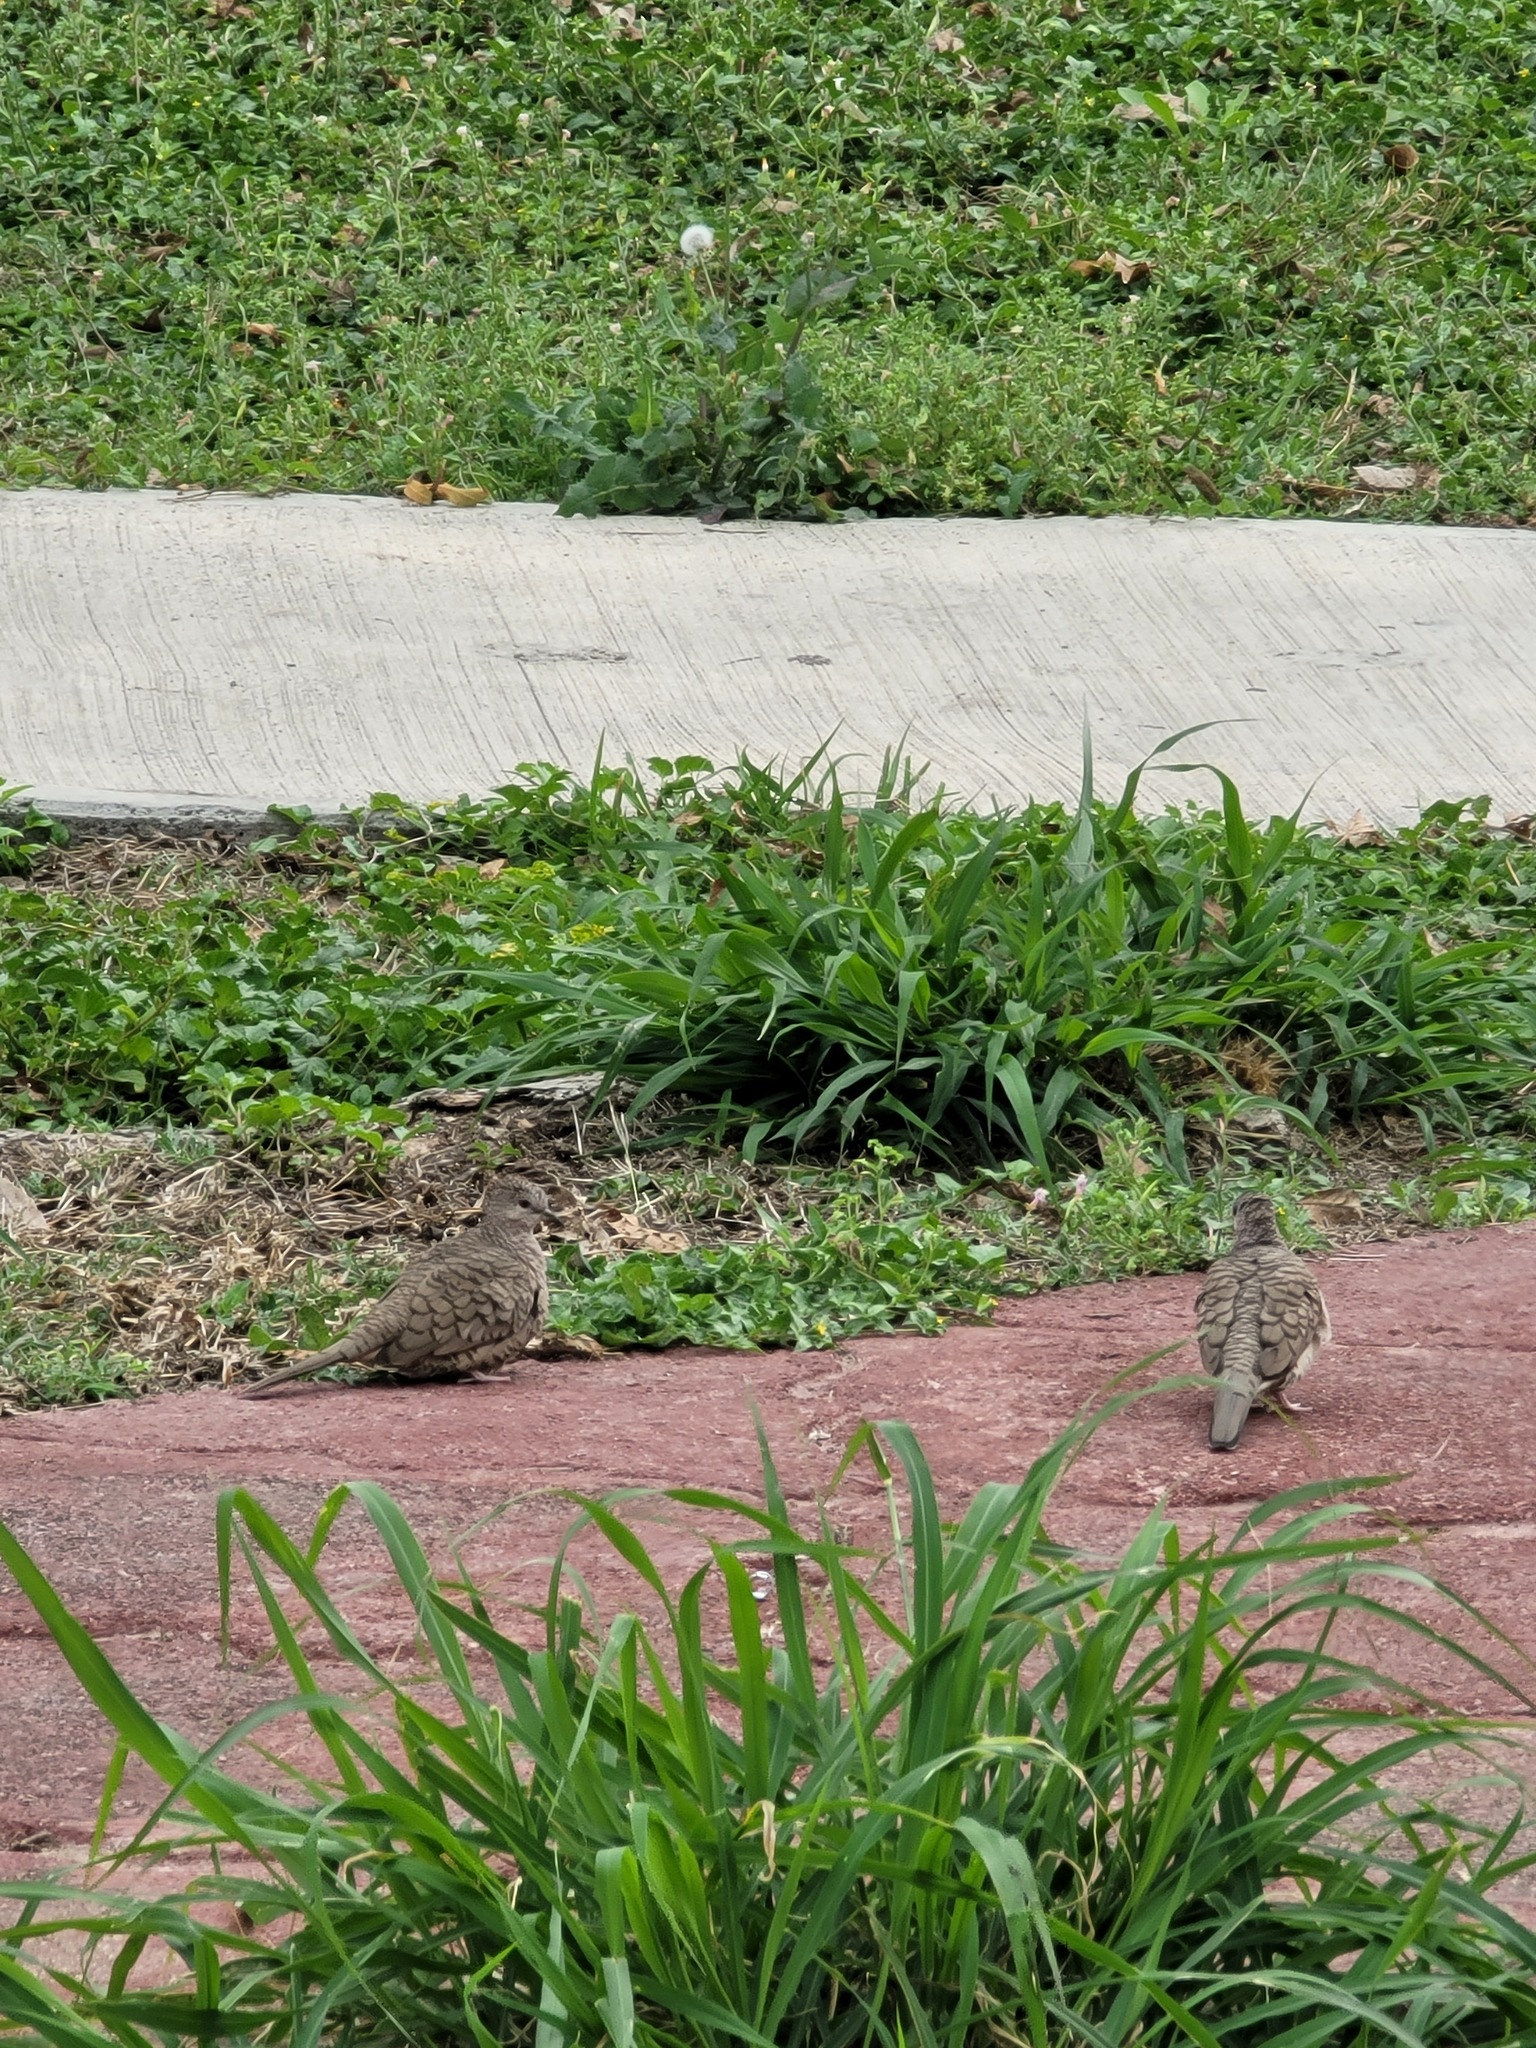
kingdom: Animalia
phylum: Chordata
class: Aves
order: Columbiformes
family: Columbidae
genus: Columbina
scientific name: Columbina inca
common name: Inca dove
